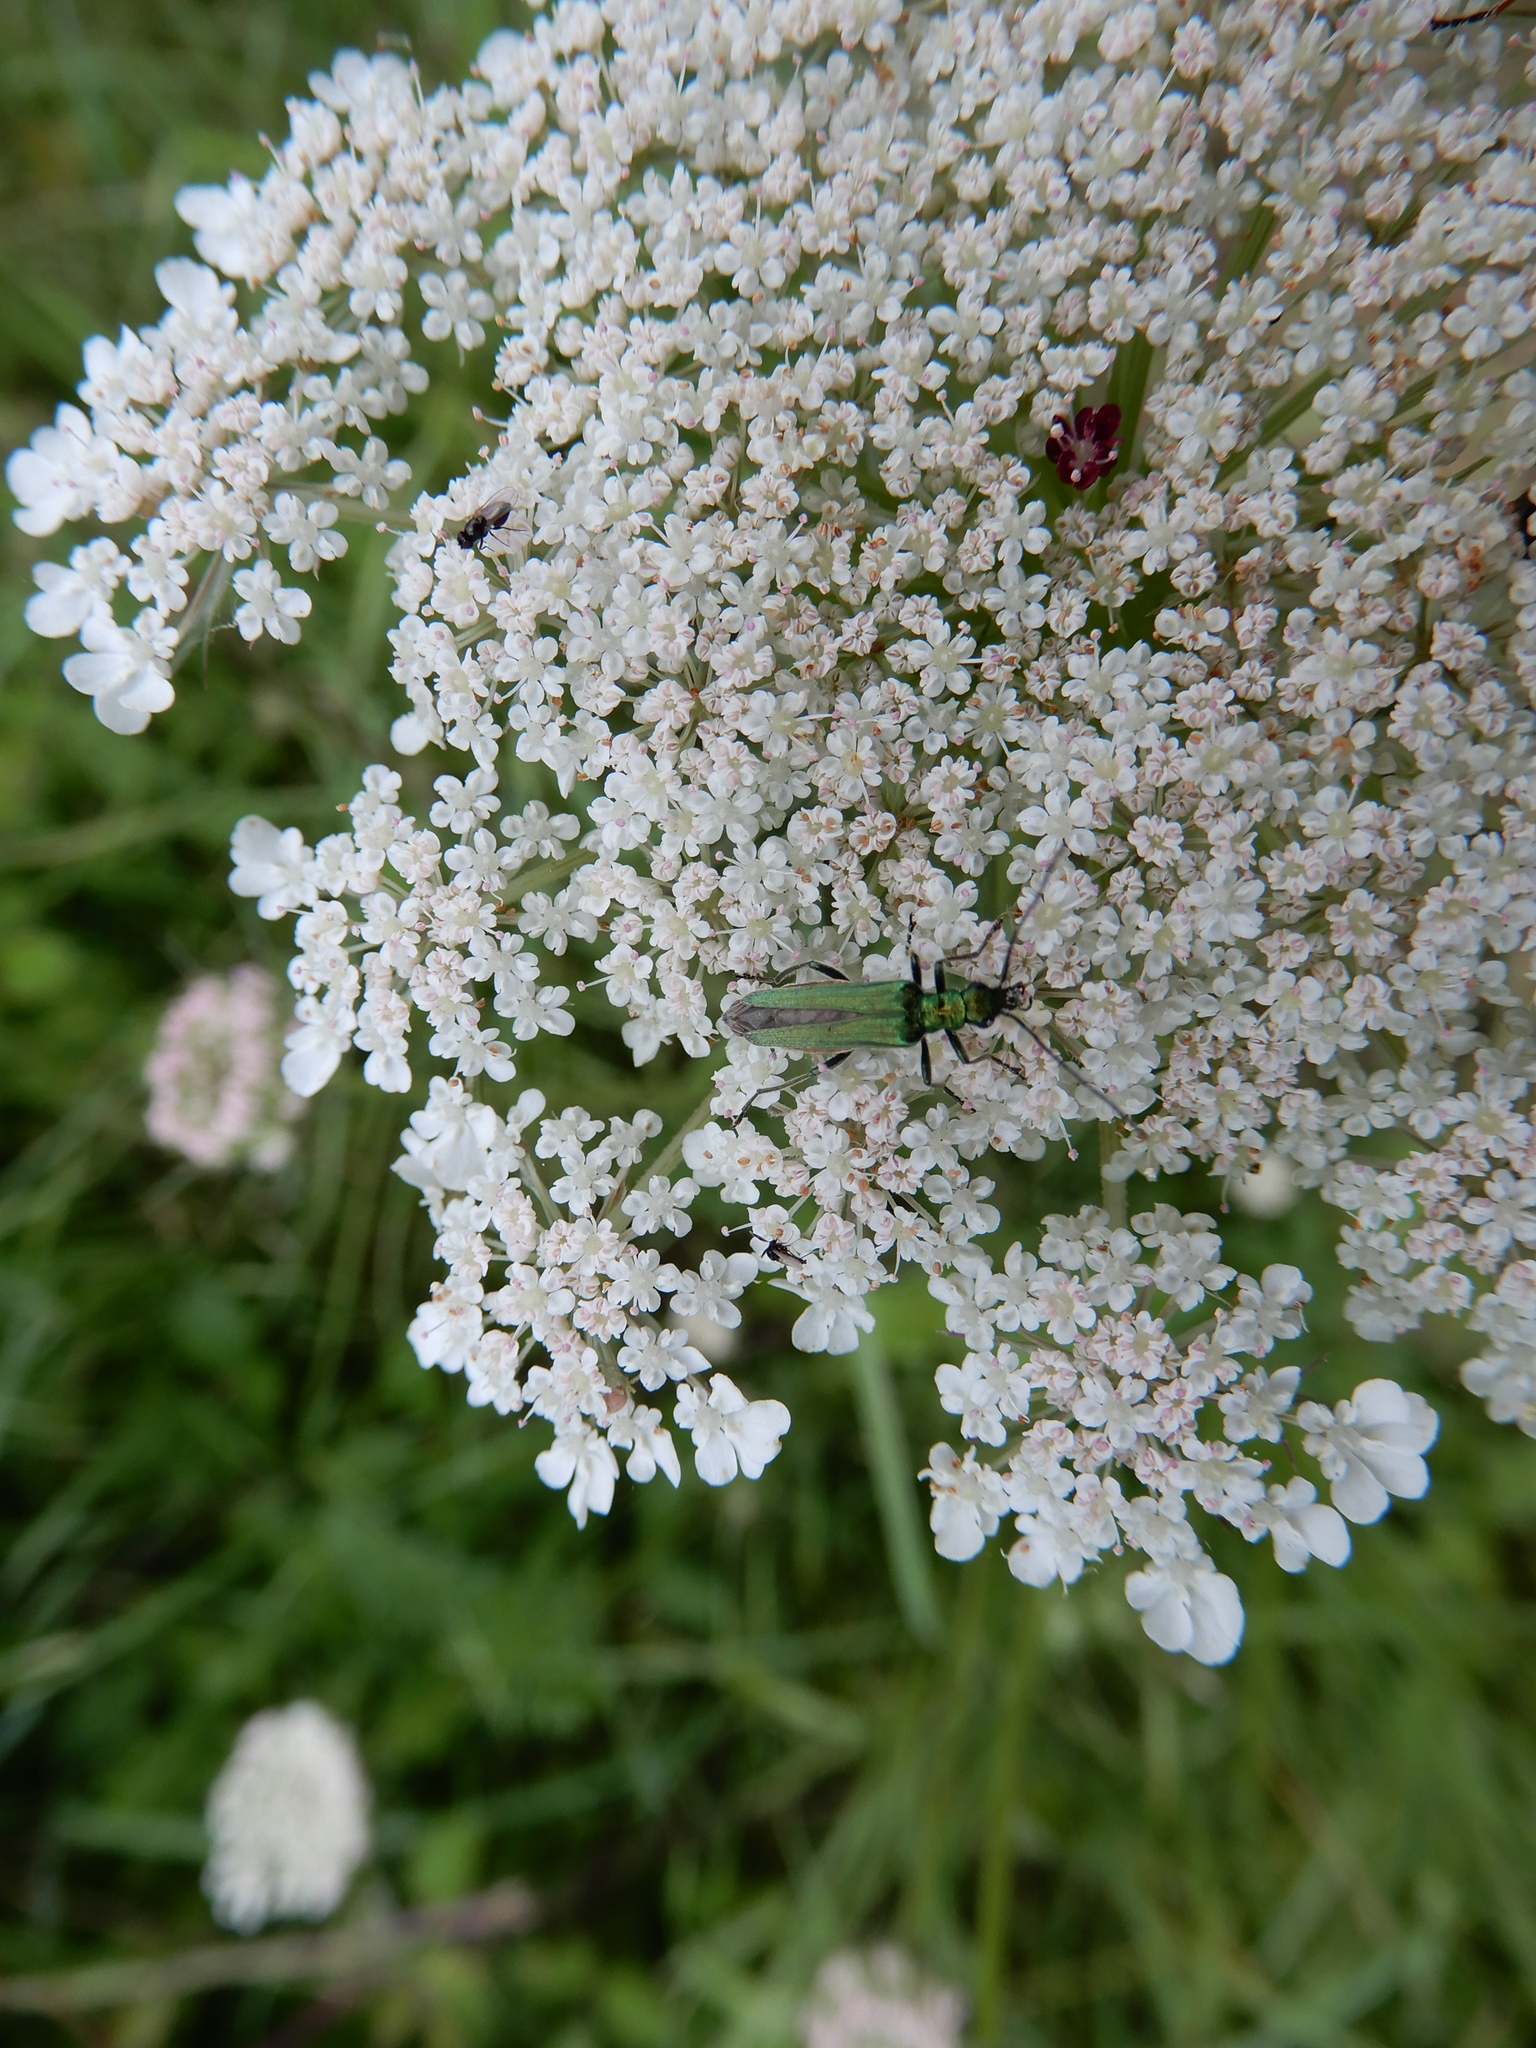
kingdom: Animalia
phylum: Arthropoda
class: Insecta
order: Coleoptera
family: Oedemeridae
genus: Oedemera
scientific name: Oedemera nobilis
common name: Swollen-thighed beetle
